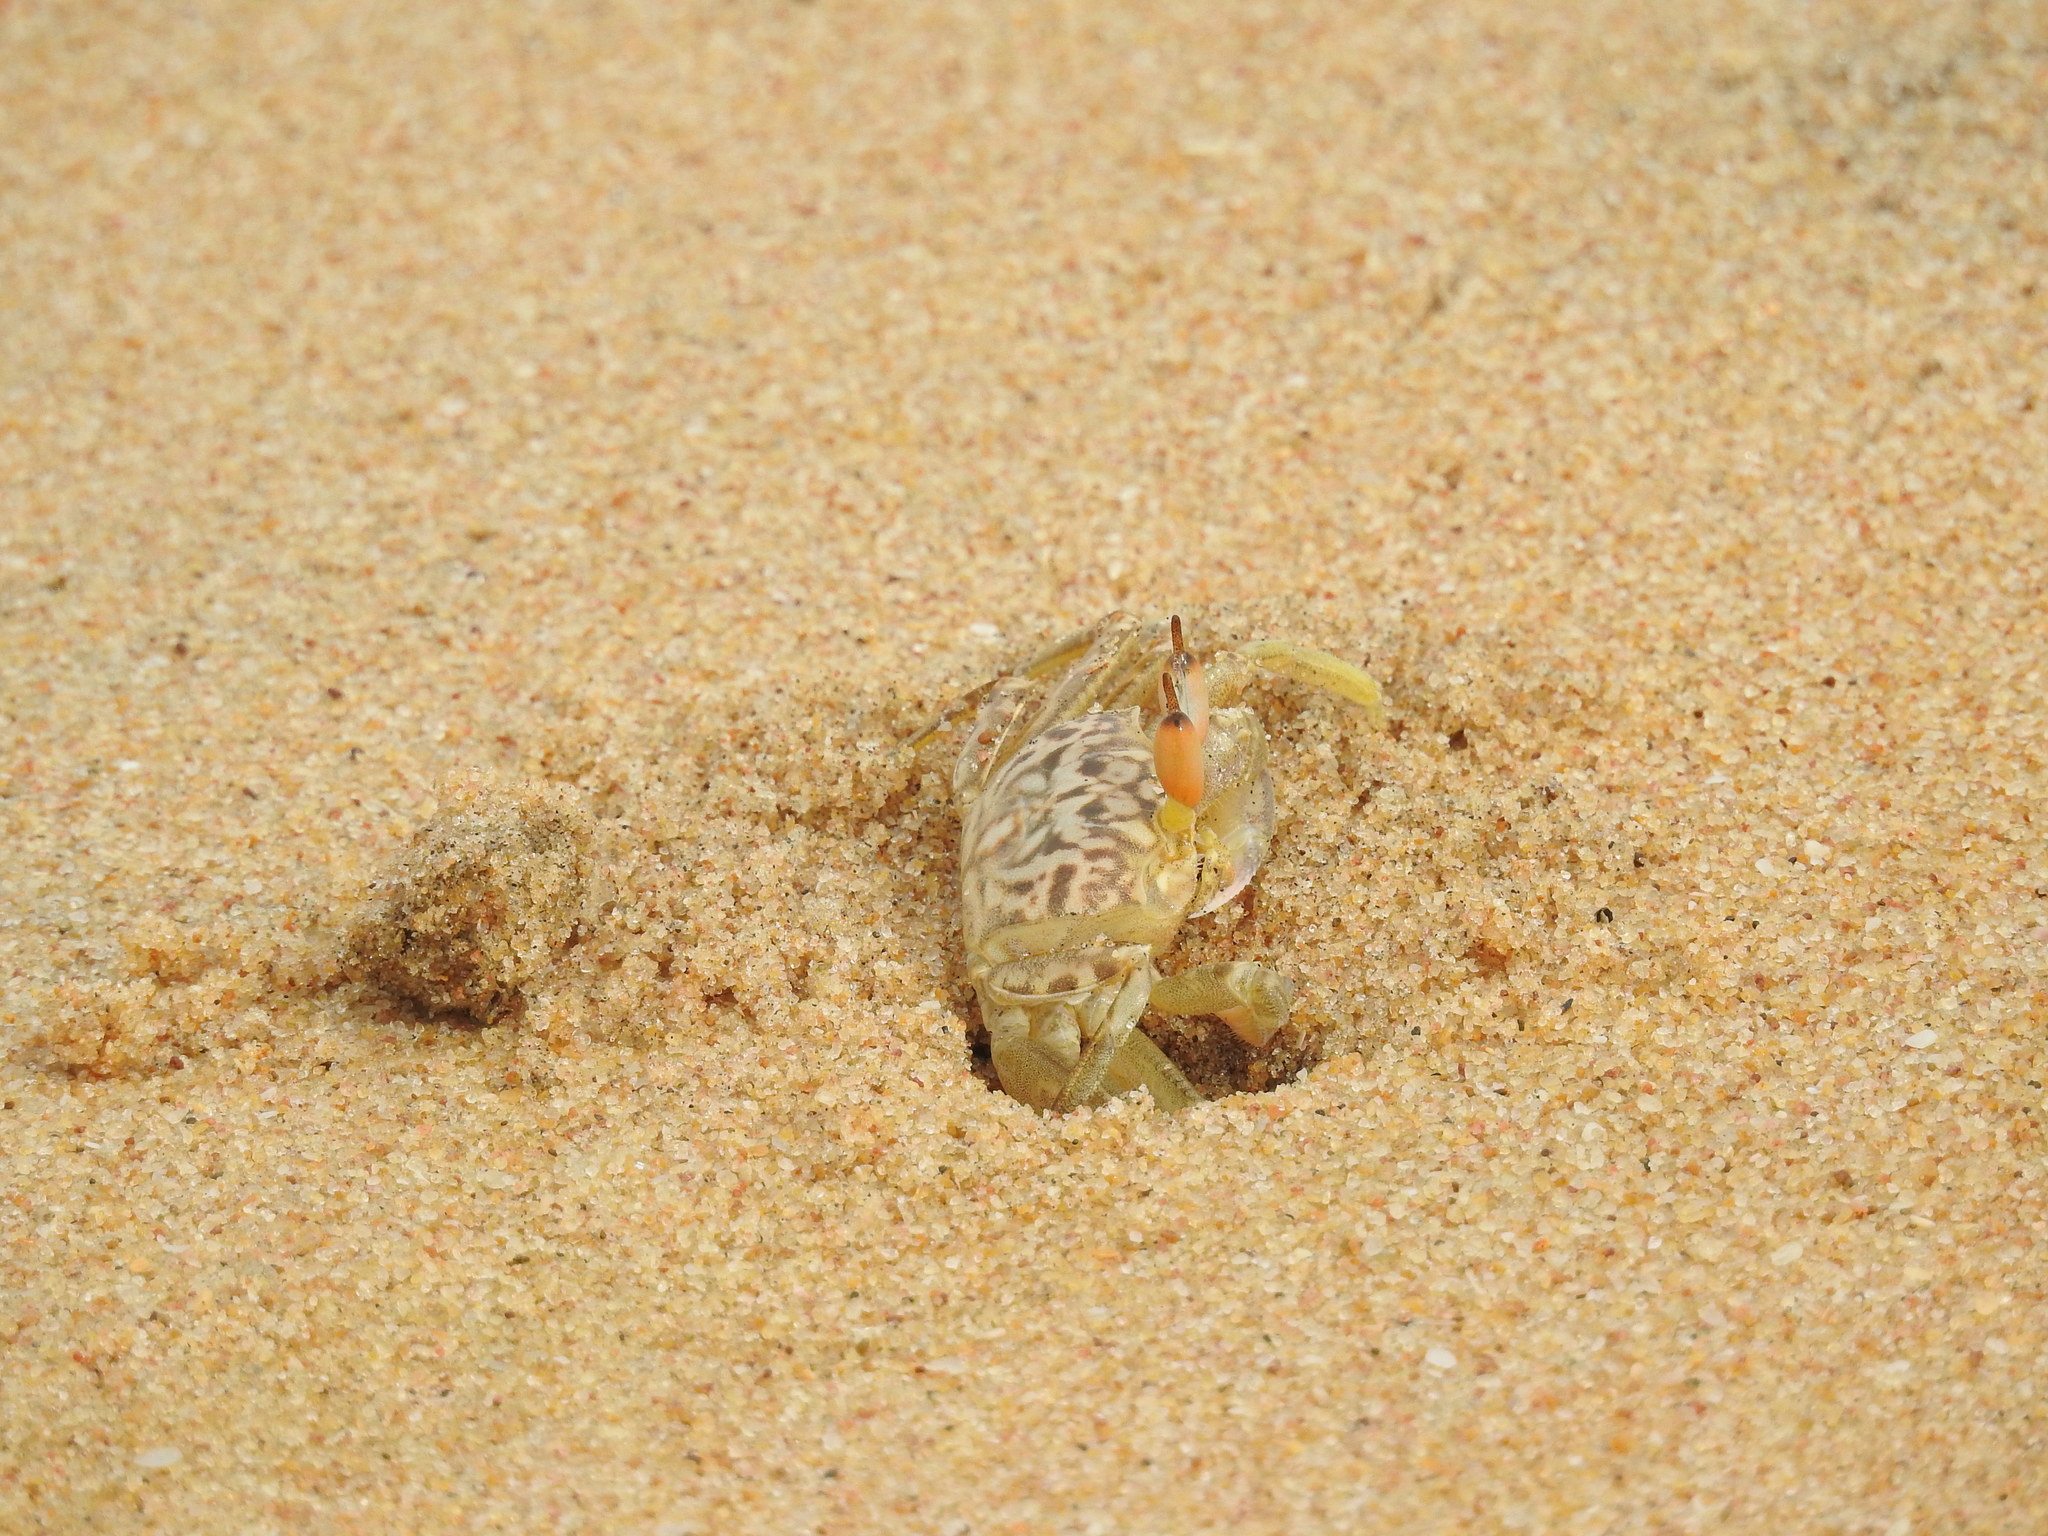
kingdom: Animalia
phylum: Arthropoda
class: Malacostraca
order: Decapoda
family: Ocypodidae
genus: Ocypode
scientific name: Ocypode ceratophthalmus
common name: Indo-pacific ghost crab
